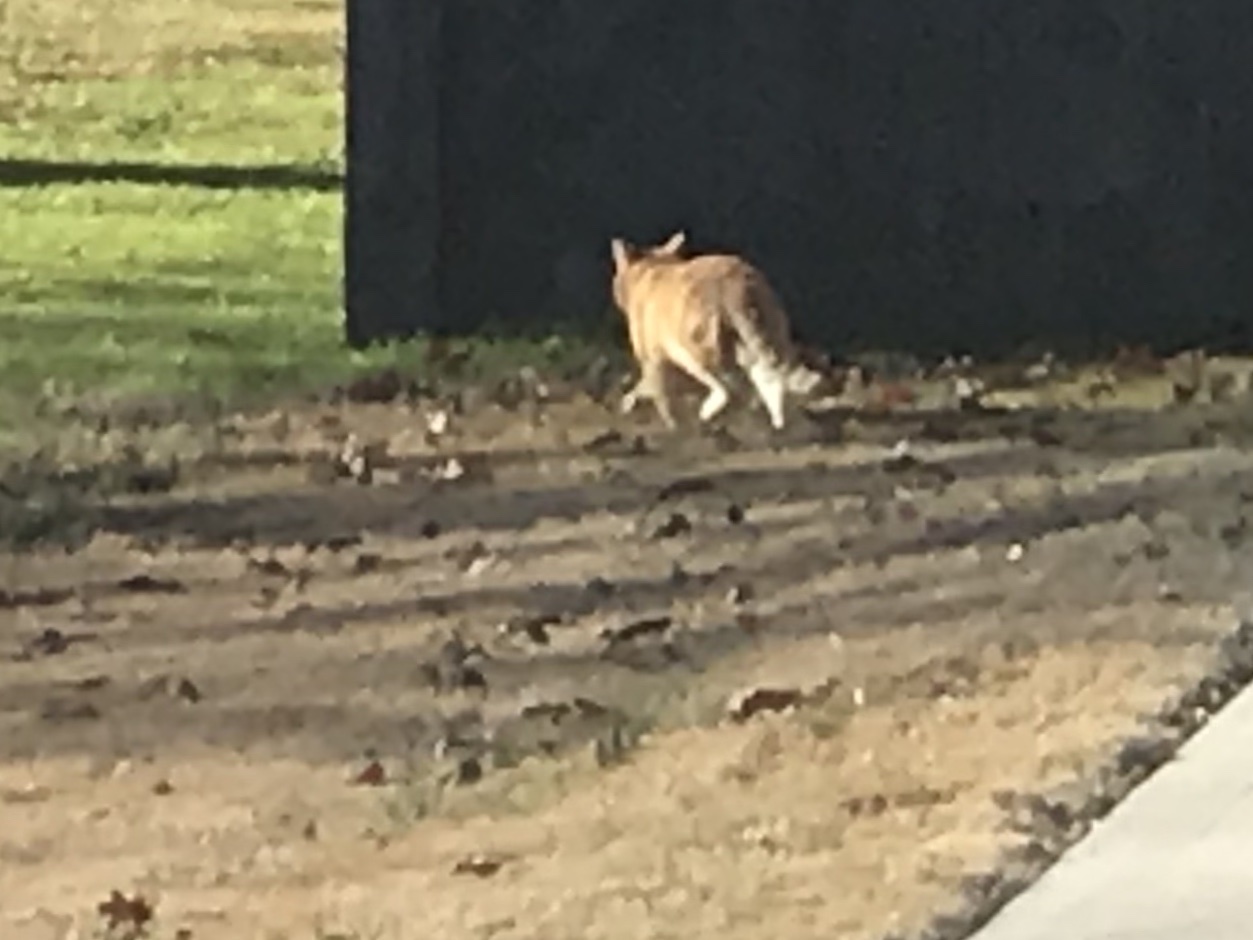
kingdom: Animalia
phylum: Chordata
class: Mammalia
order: Carnivora
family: Felidae
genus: Felis
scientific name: Felis catus
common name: Domestic cat
